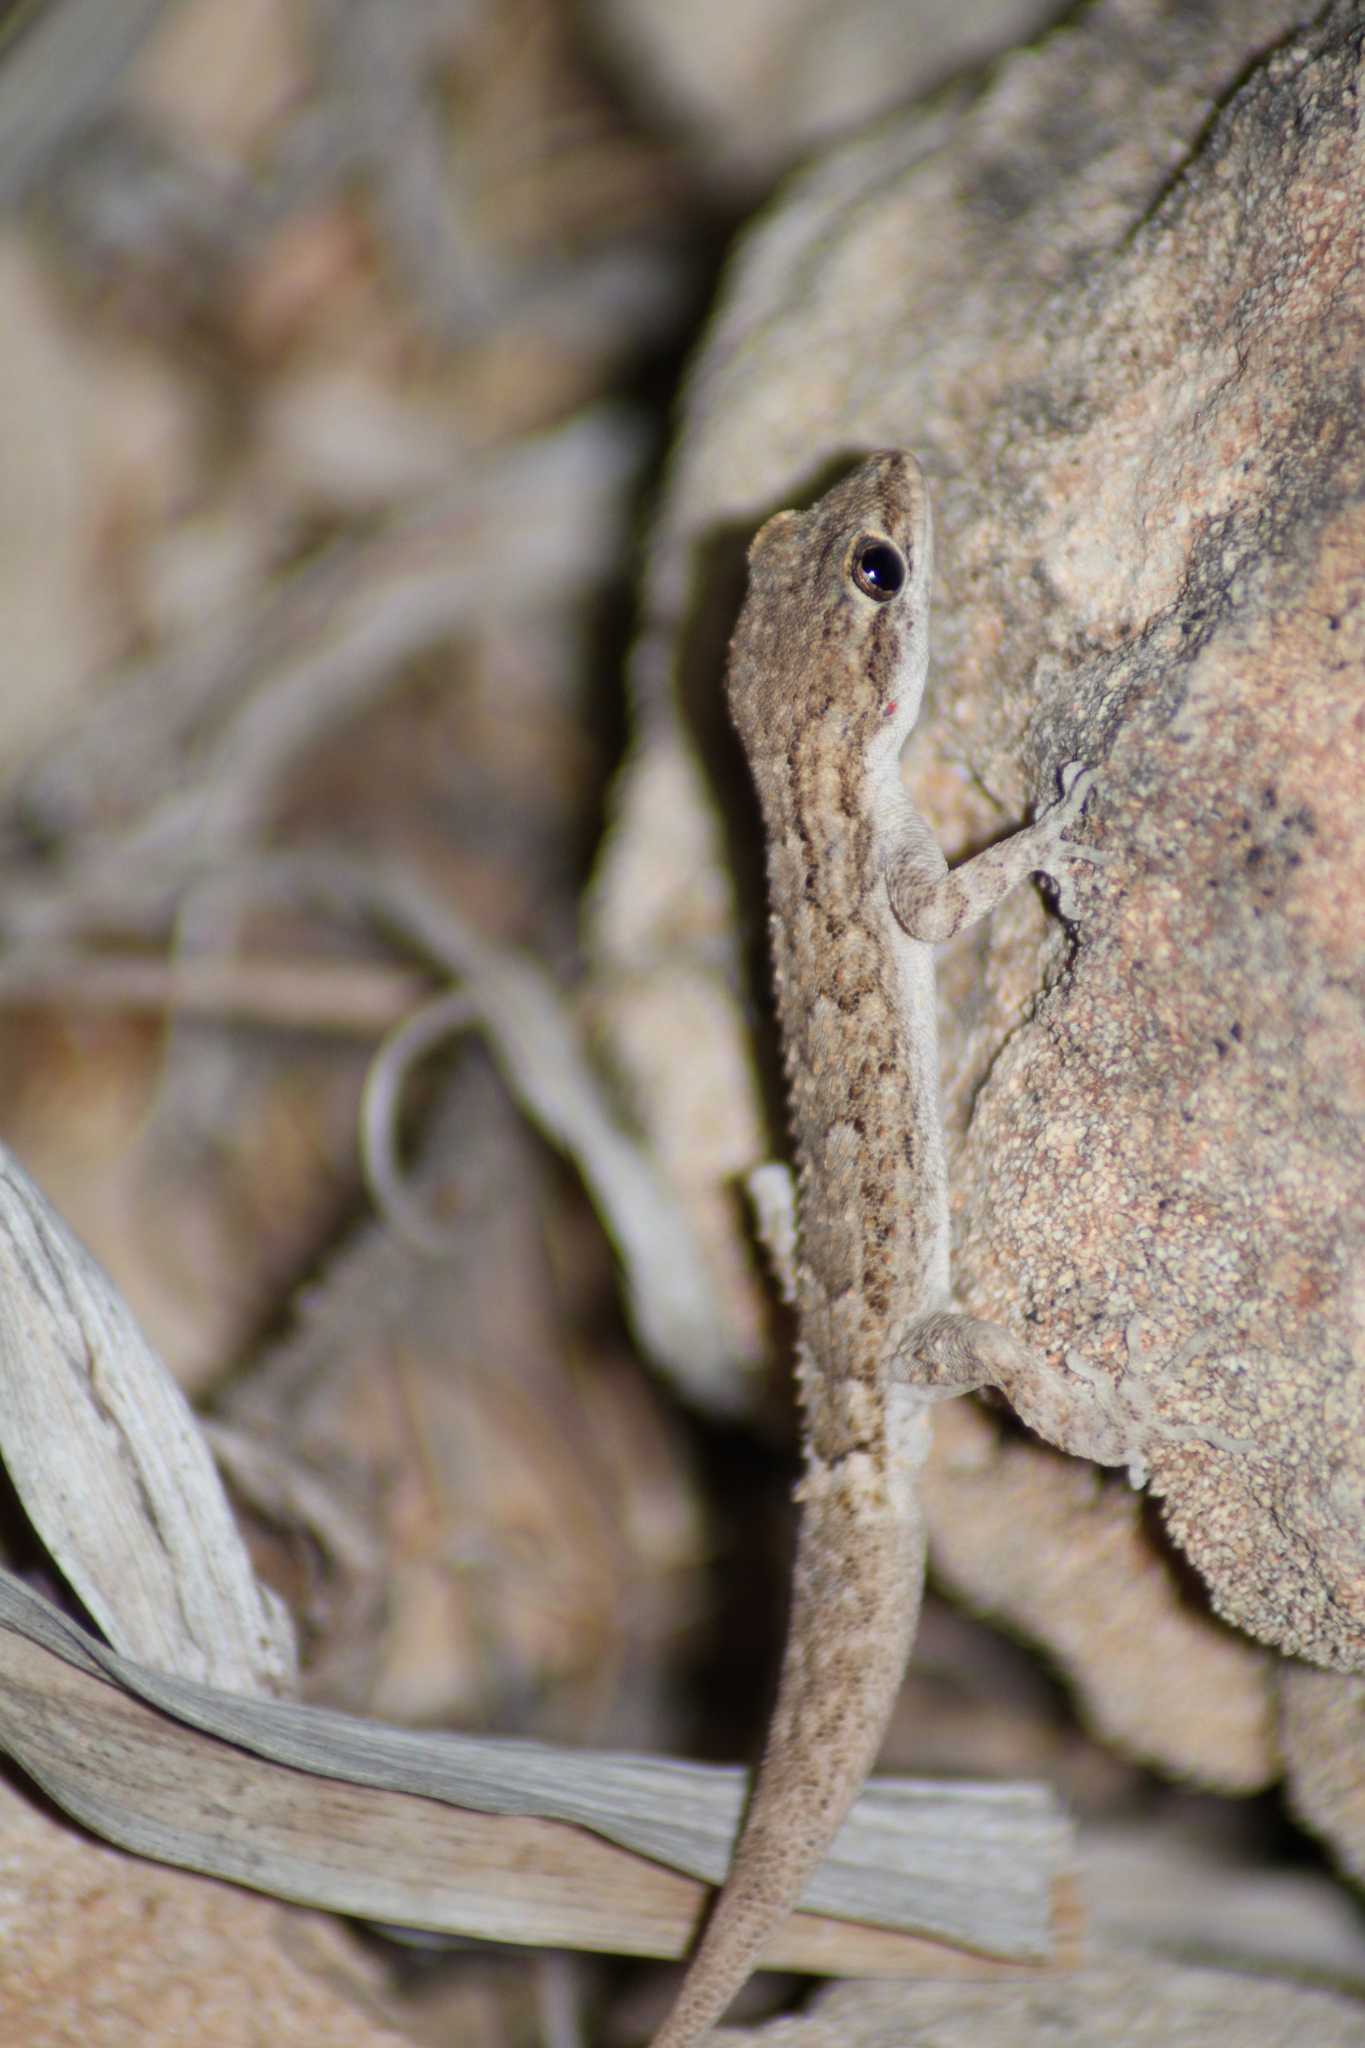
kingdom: Animalia
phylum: Chordata
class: Squamata
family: Gekkonidae
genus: Mediodactylus
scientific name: Mediodactylus orientalis
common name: Mediterranean thin-toed gecko
